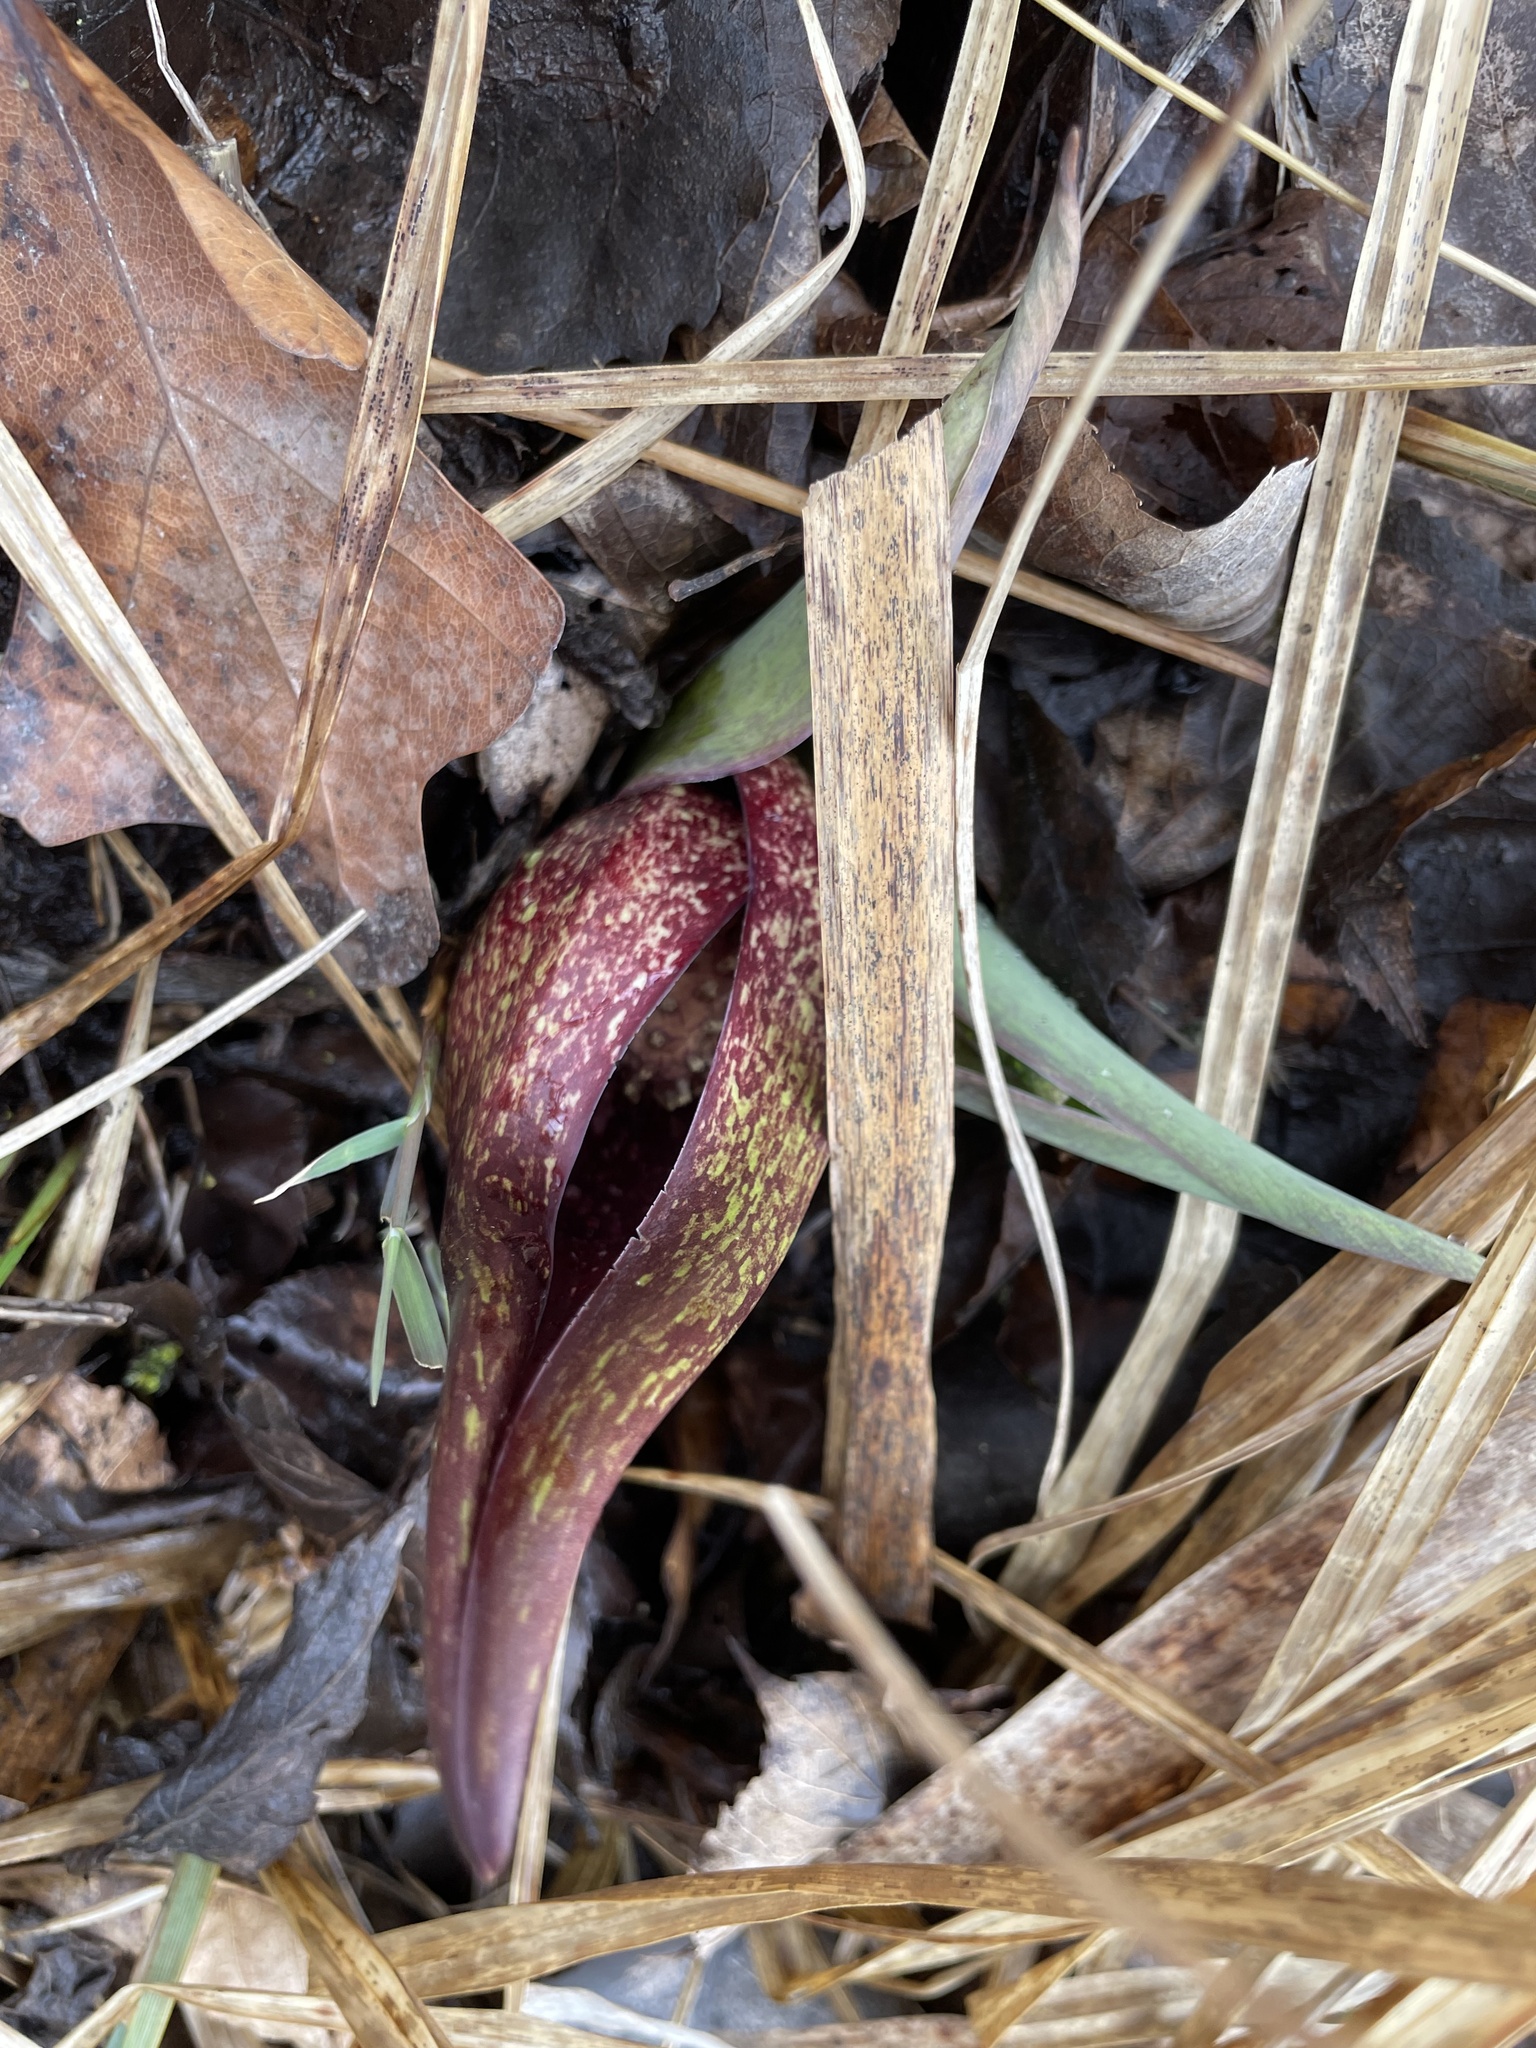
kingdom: Plantae
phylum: Tracheophyta
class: Liliopsida
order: Alismatales
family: Araceae
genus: Symplocarpus
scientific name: Symplocarpus foetidus
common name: Eastern skunk cabbage
